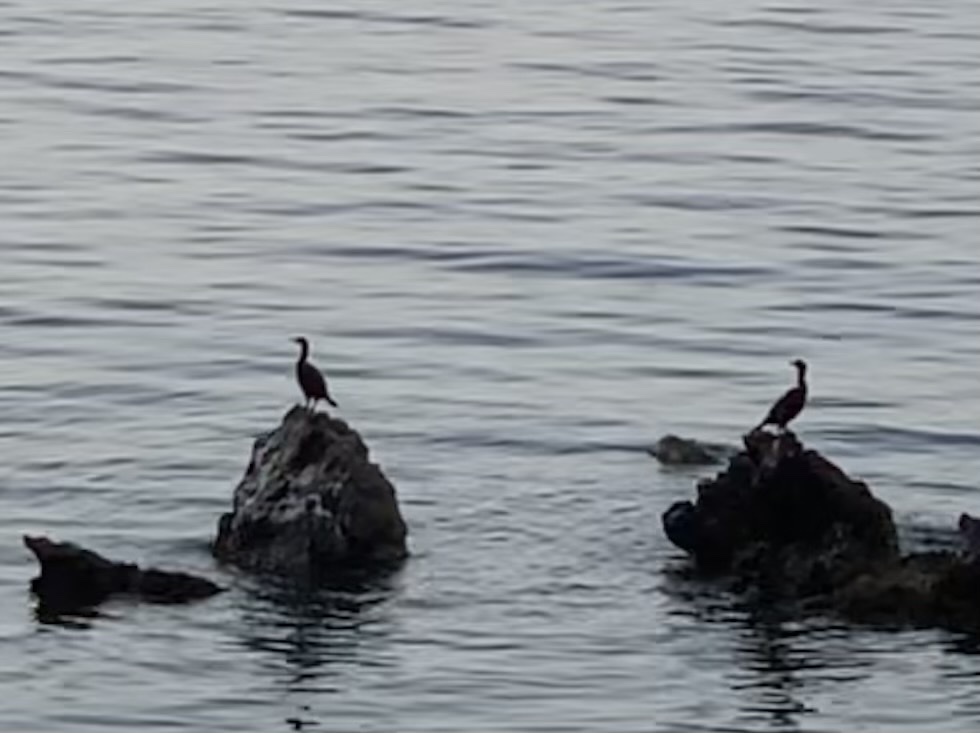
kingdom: Animalia
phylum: Chordata
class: Aves
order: Suliformes
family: Phalacrocoracidae
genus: Phalacrocorax
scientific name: Phalacrocorax aristotelis
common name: European shag
